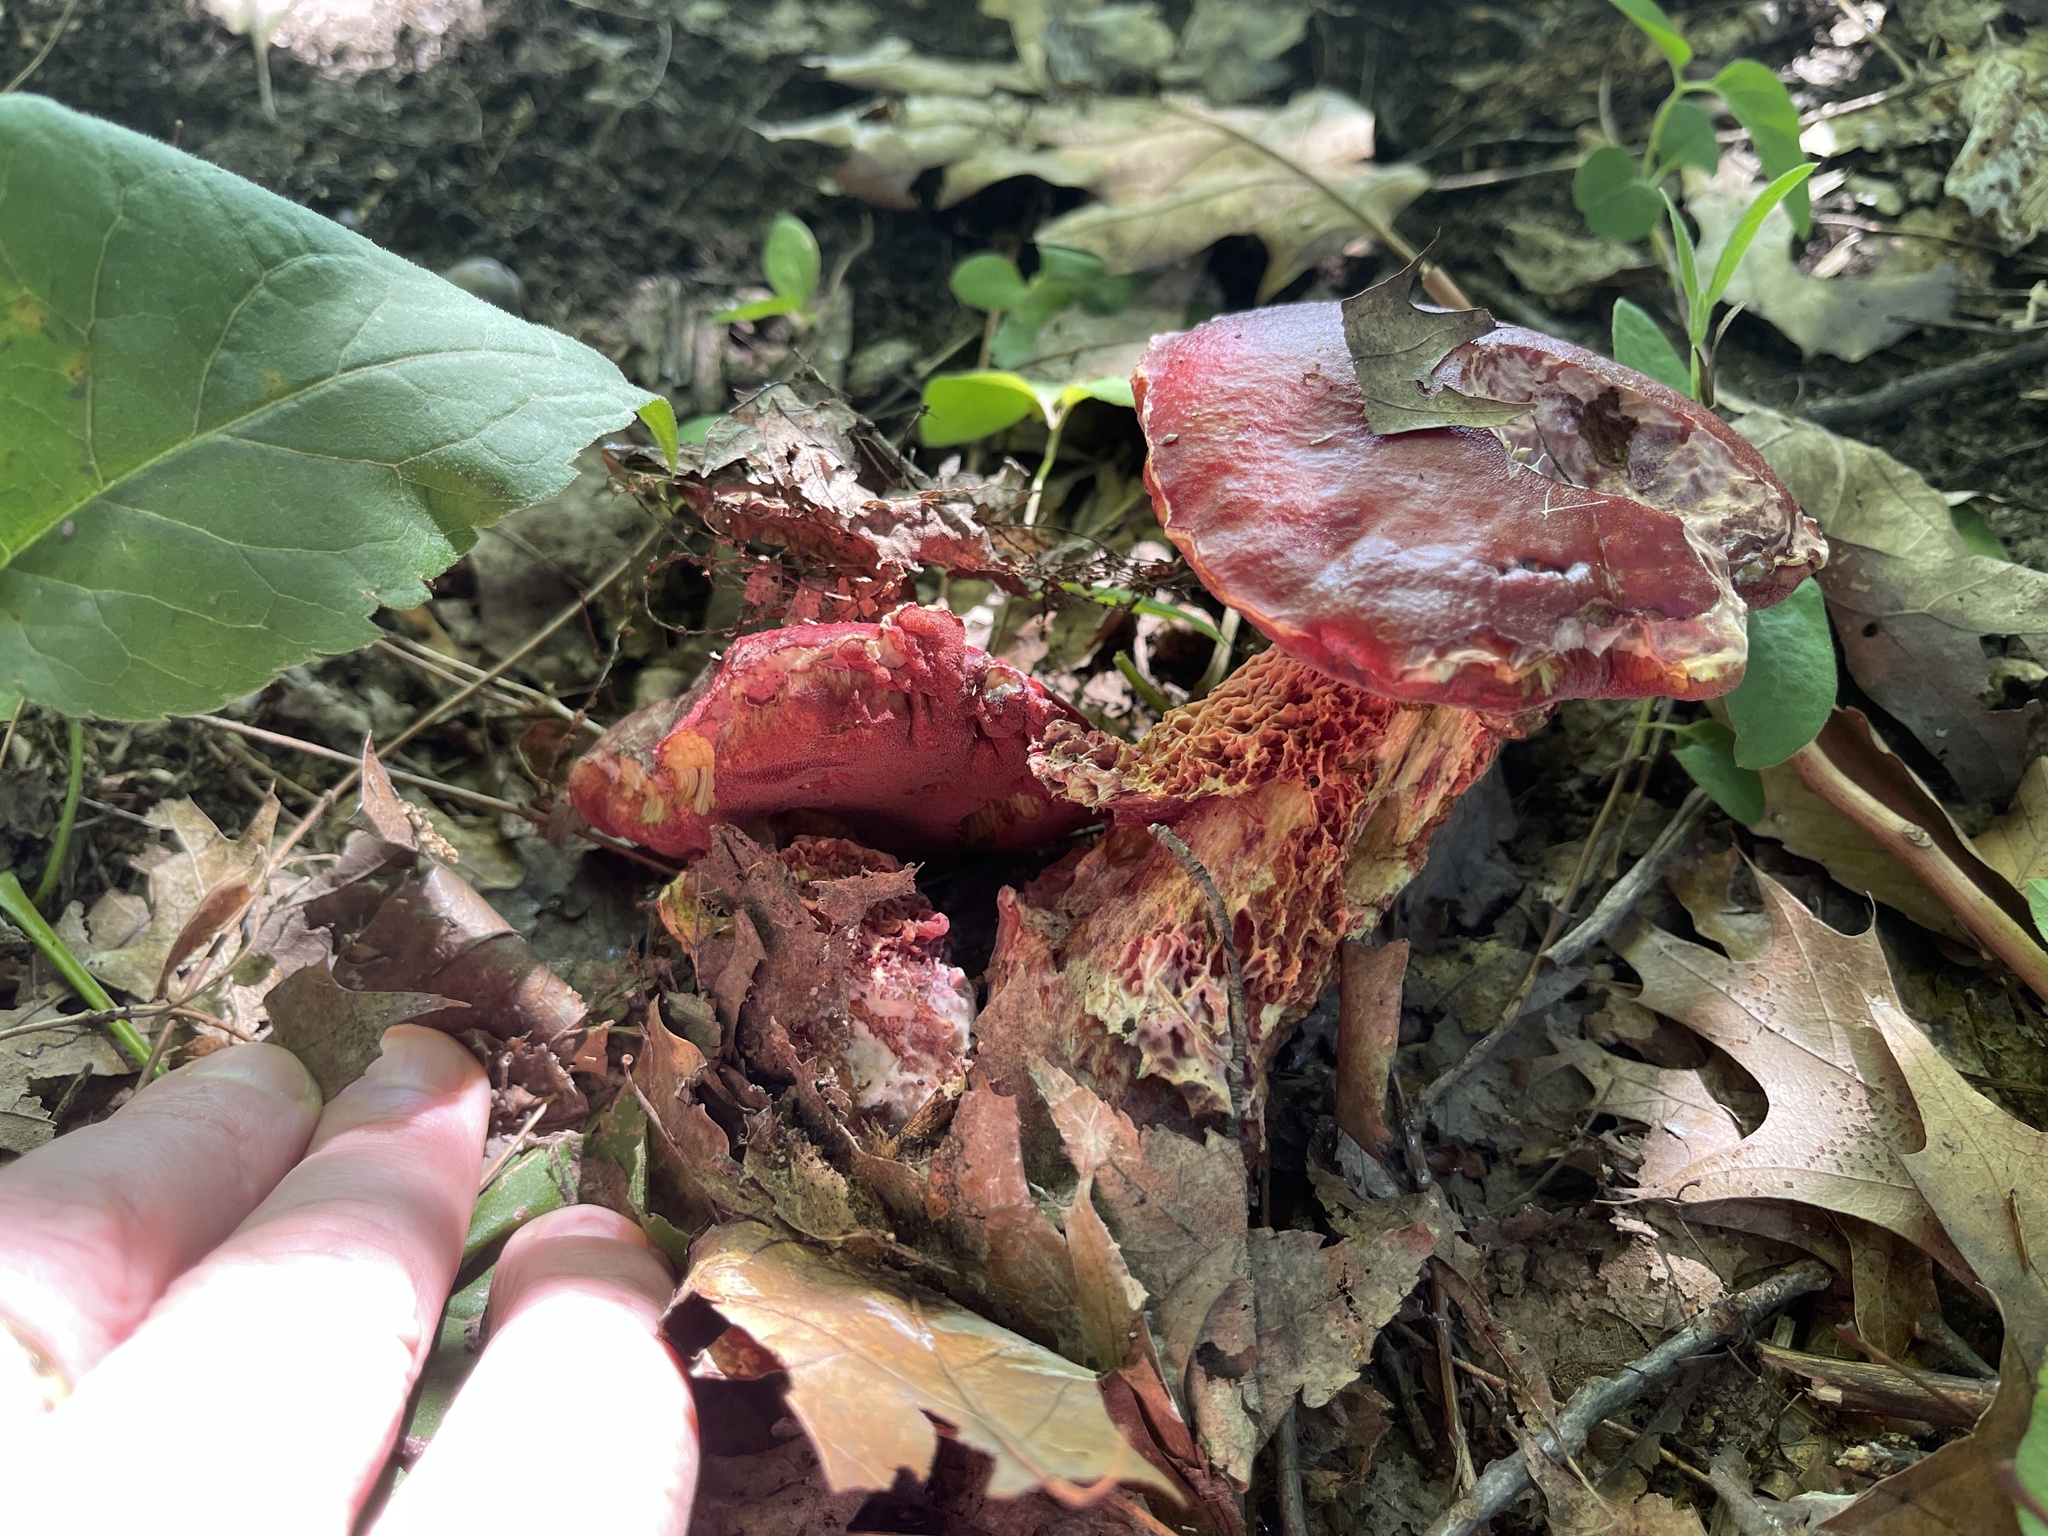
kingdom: Fungi
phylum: Basidiomycota
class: Agaricomycetes
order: Boletales
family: Boletaceae
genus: Butyriboletus
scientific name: Butyriboletus frostii
